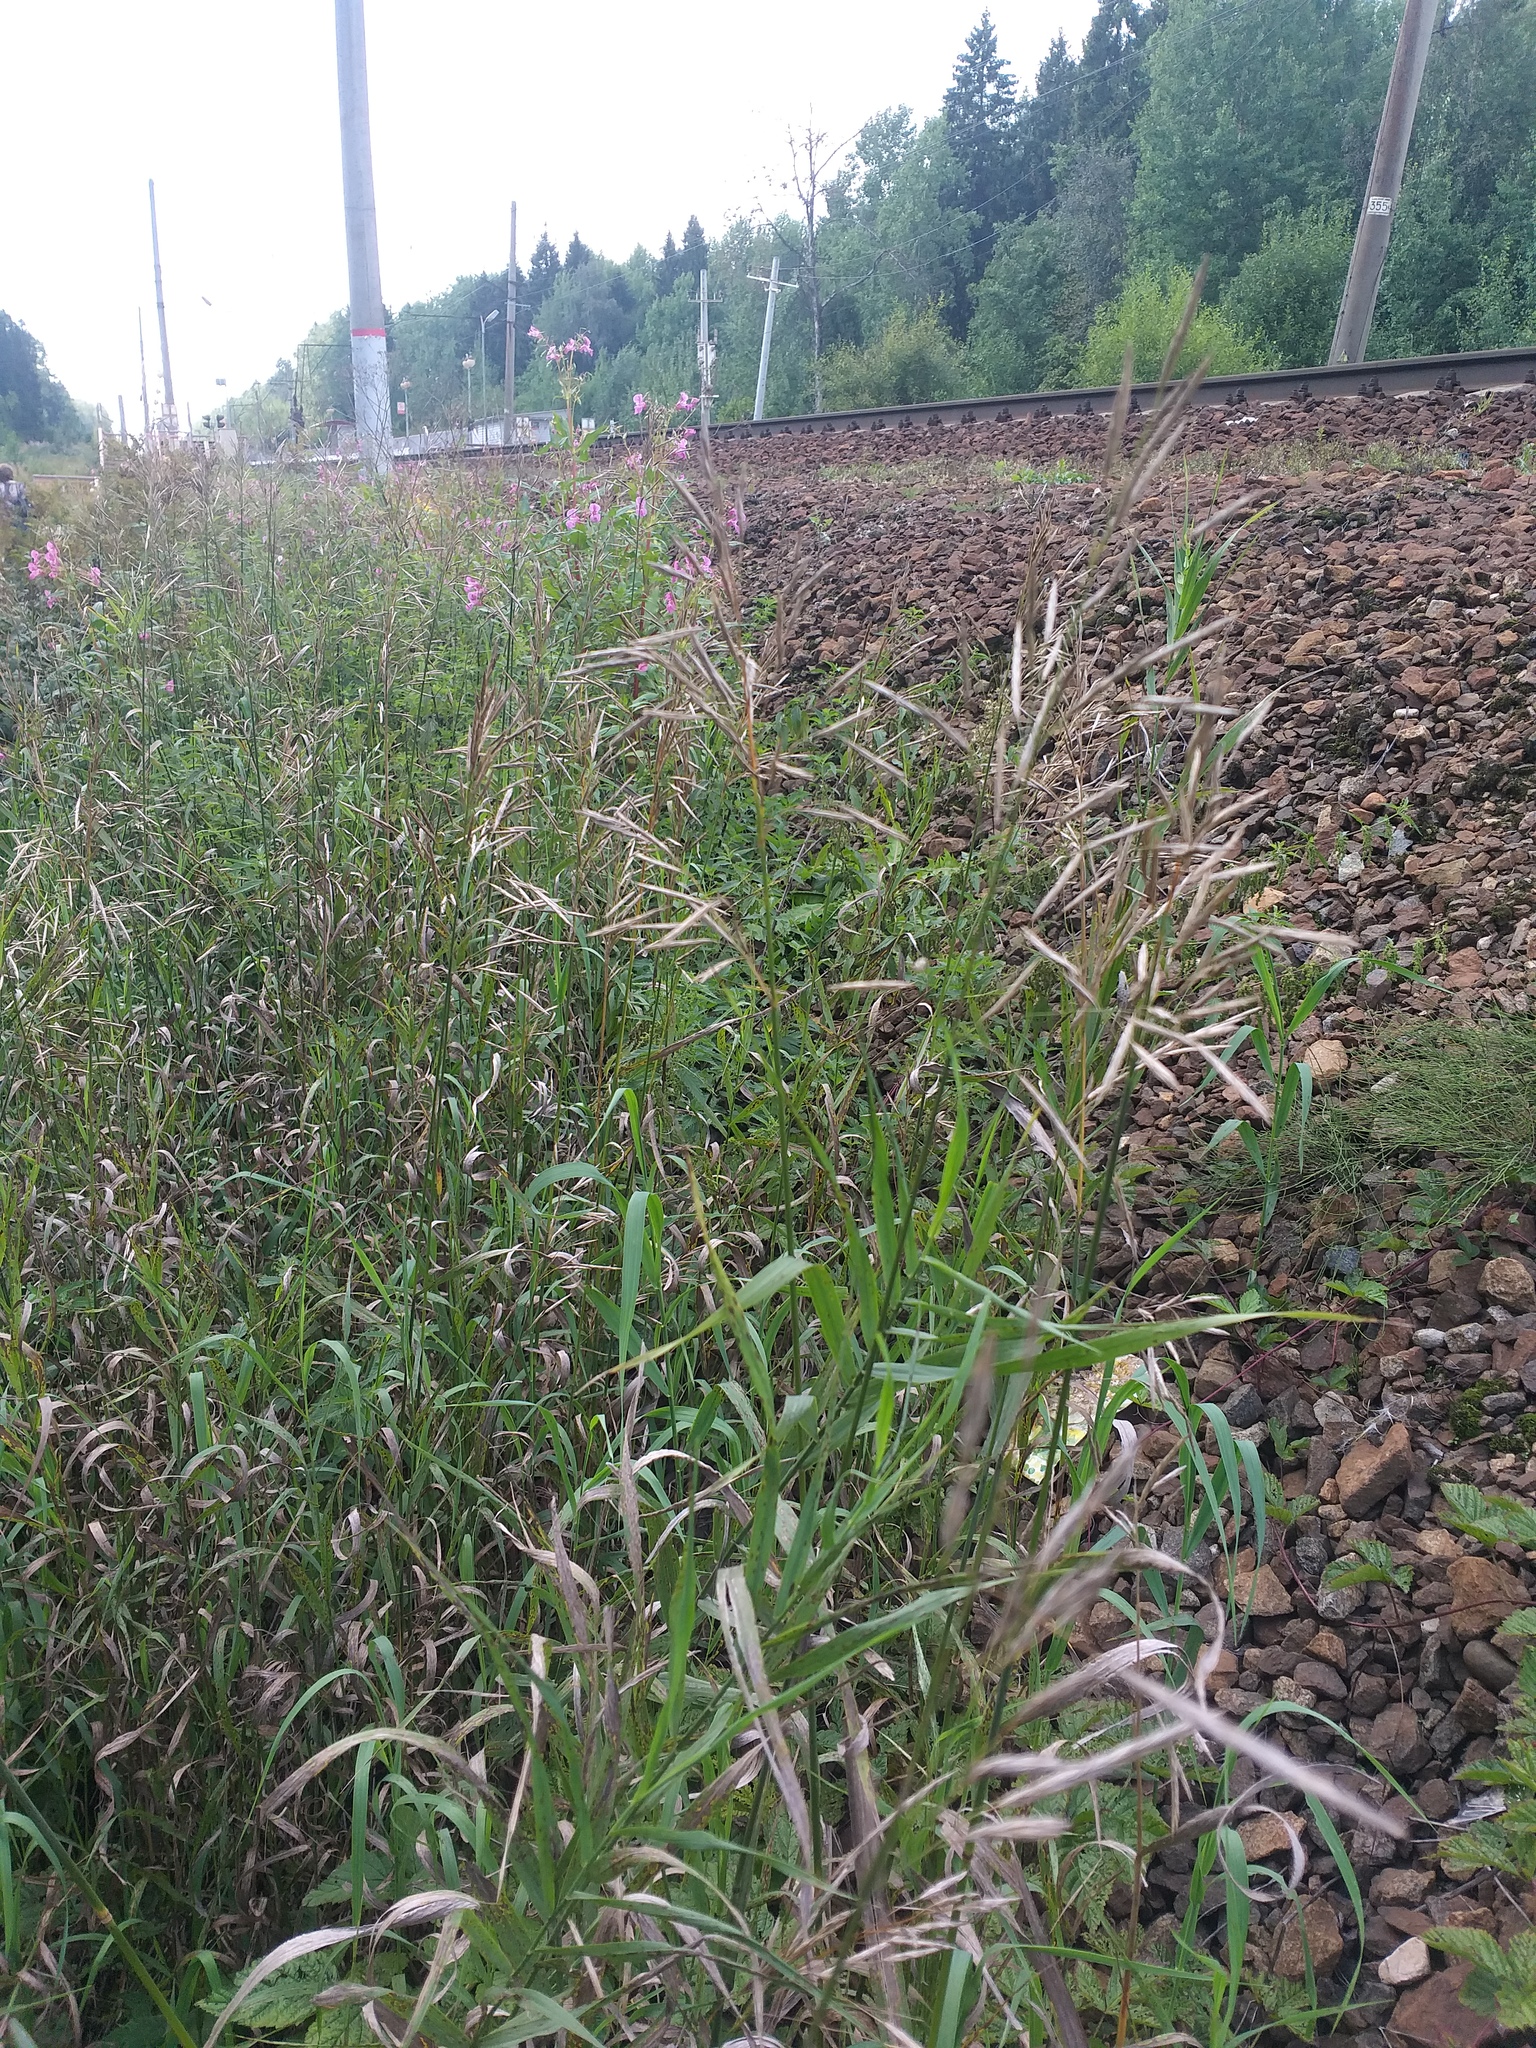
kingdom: Plantae
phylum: Tracheophyta
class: Liliopsida
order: Poales
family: Poaceae
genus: Bromus
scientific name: Bromus inermis
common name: Smooth brome
